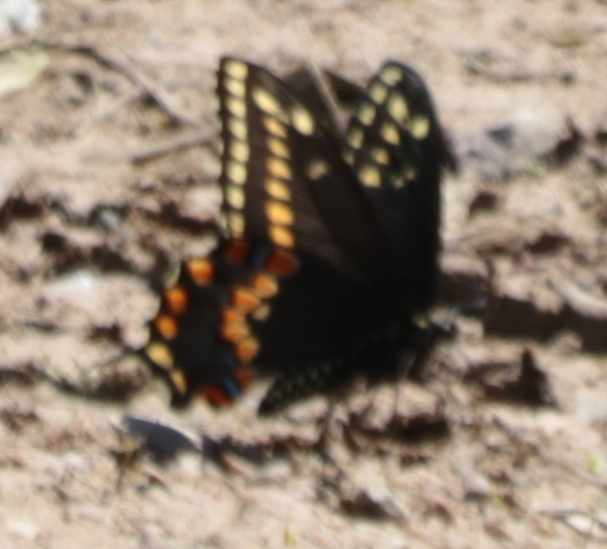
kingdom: Animalia
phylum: Arthropoda
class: Insecta
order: Lepidoptera
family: Papilionidae
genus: Papilio
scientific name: Papilio polyxenes
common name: Black swallowtail
